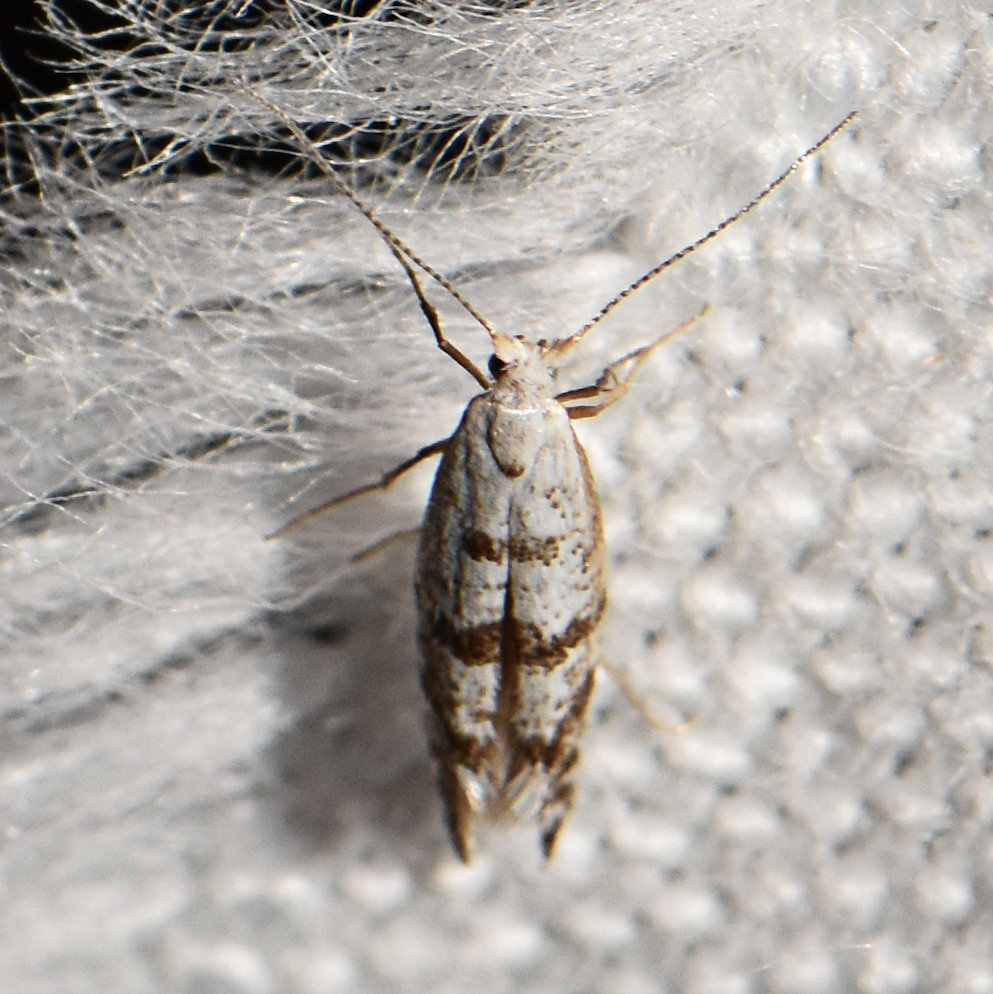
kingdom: Animalia
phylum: Arthropoda
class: Insecta
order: Lepidoptera
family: Argyresthiidae
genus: Argyresthia
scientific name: Argyresthia thuiella
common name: Arborvitae leafminer
